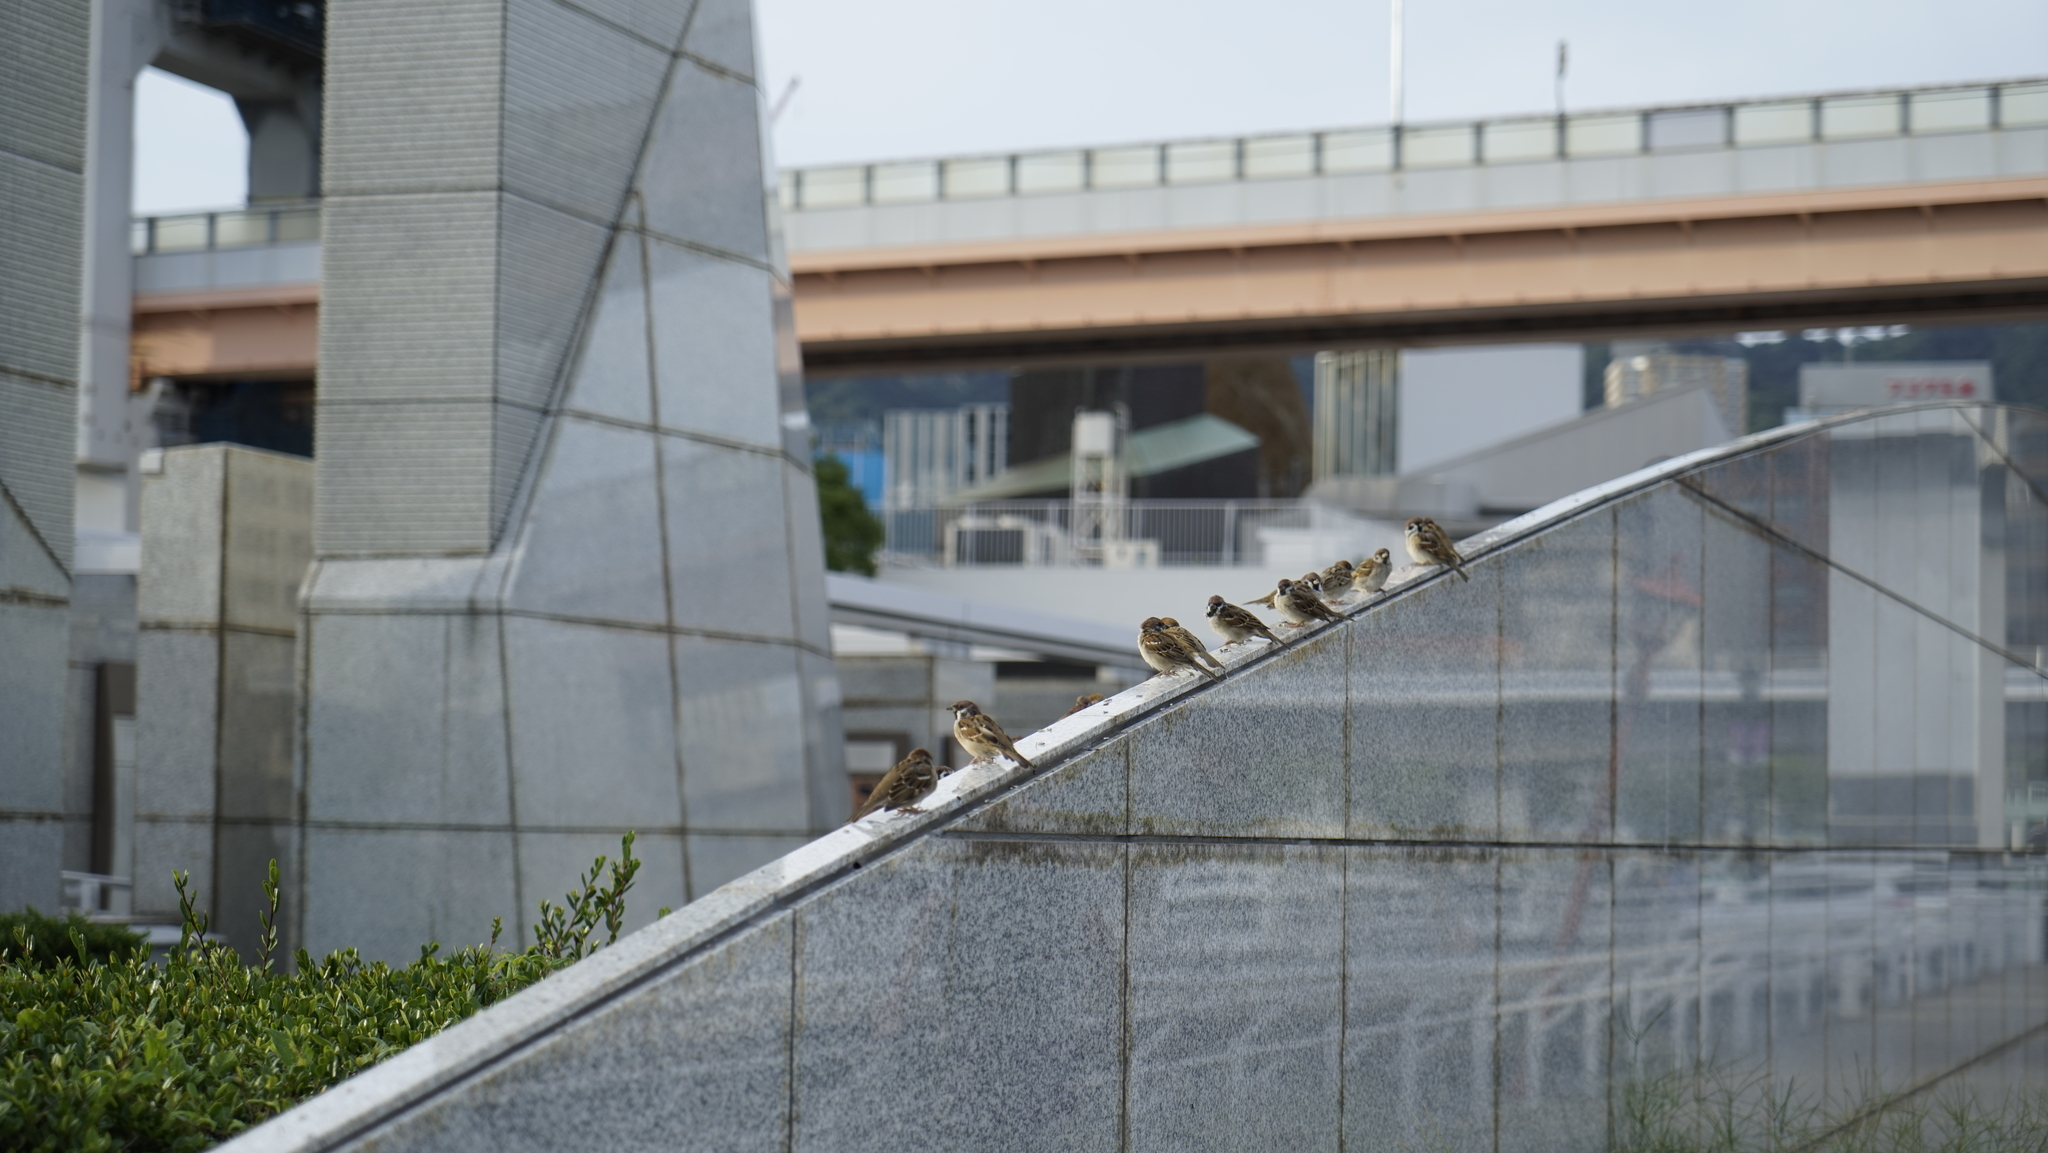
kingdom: Animalia
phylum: Chordata
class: Aves
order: Passeriformes
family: Passeridae
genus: Passer
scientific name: Passer montanus
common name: Eurasian tree sparrow
